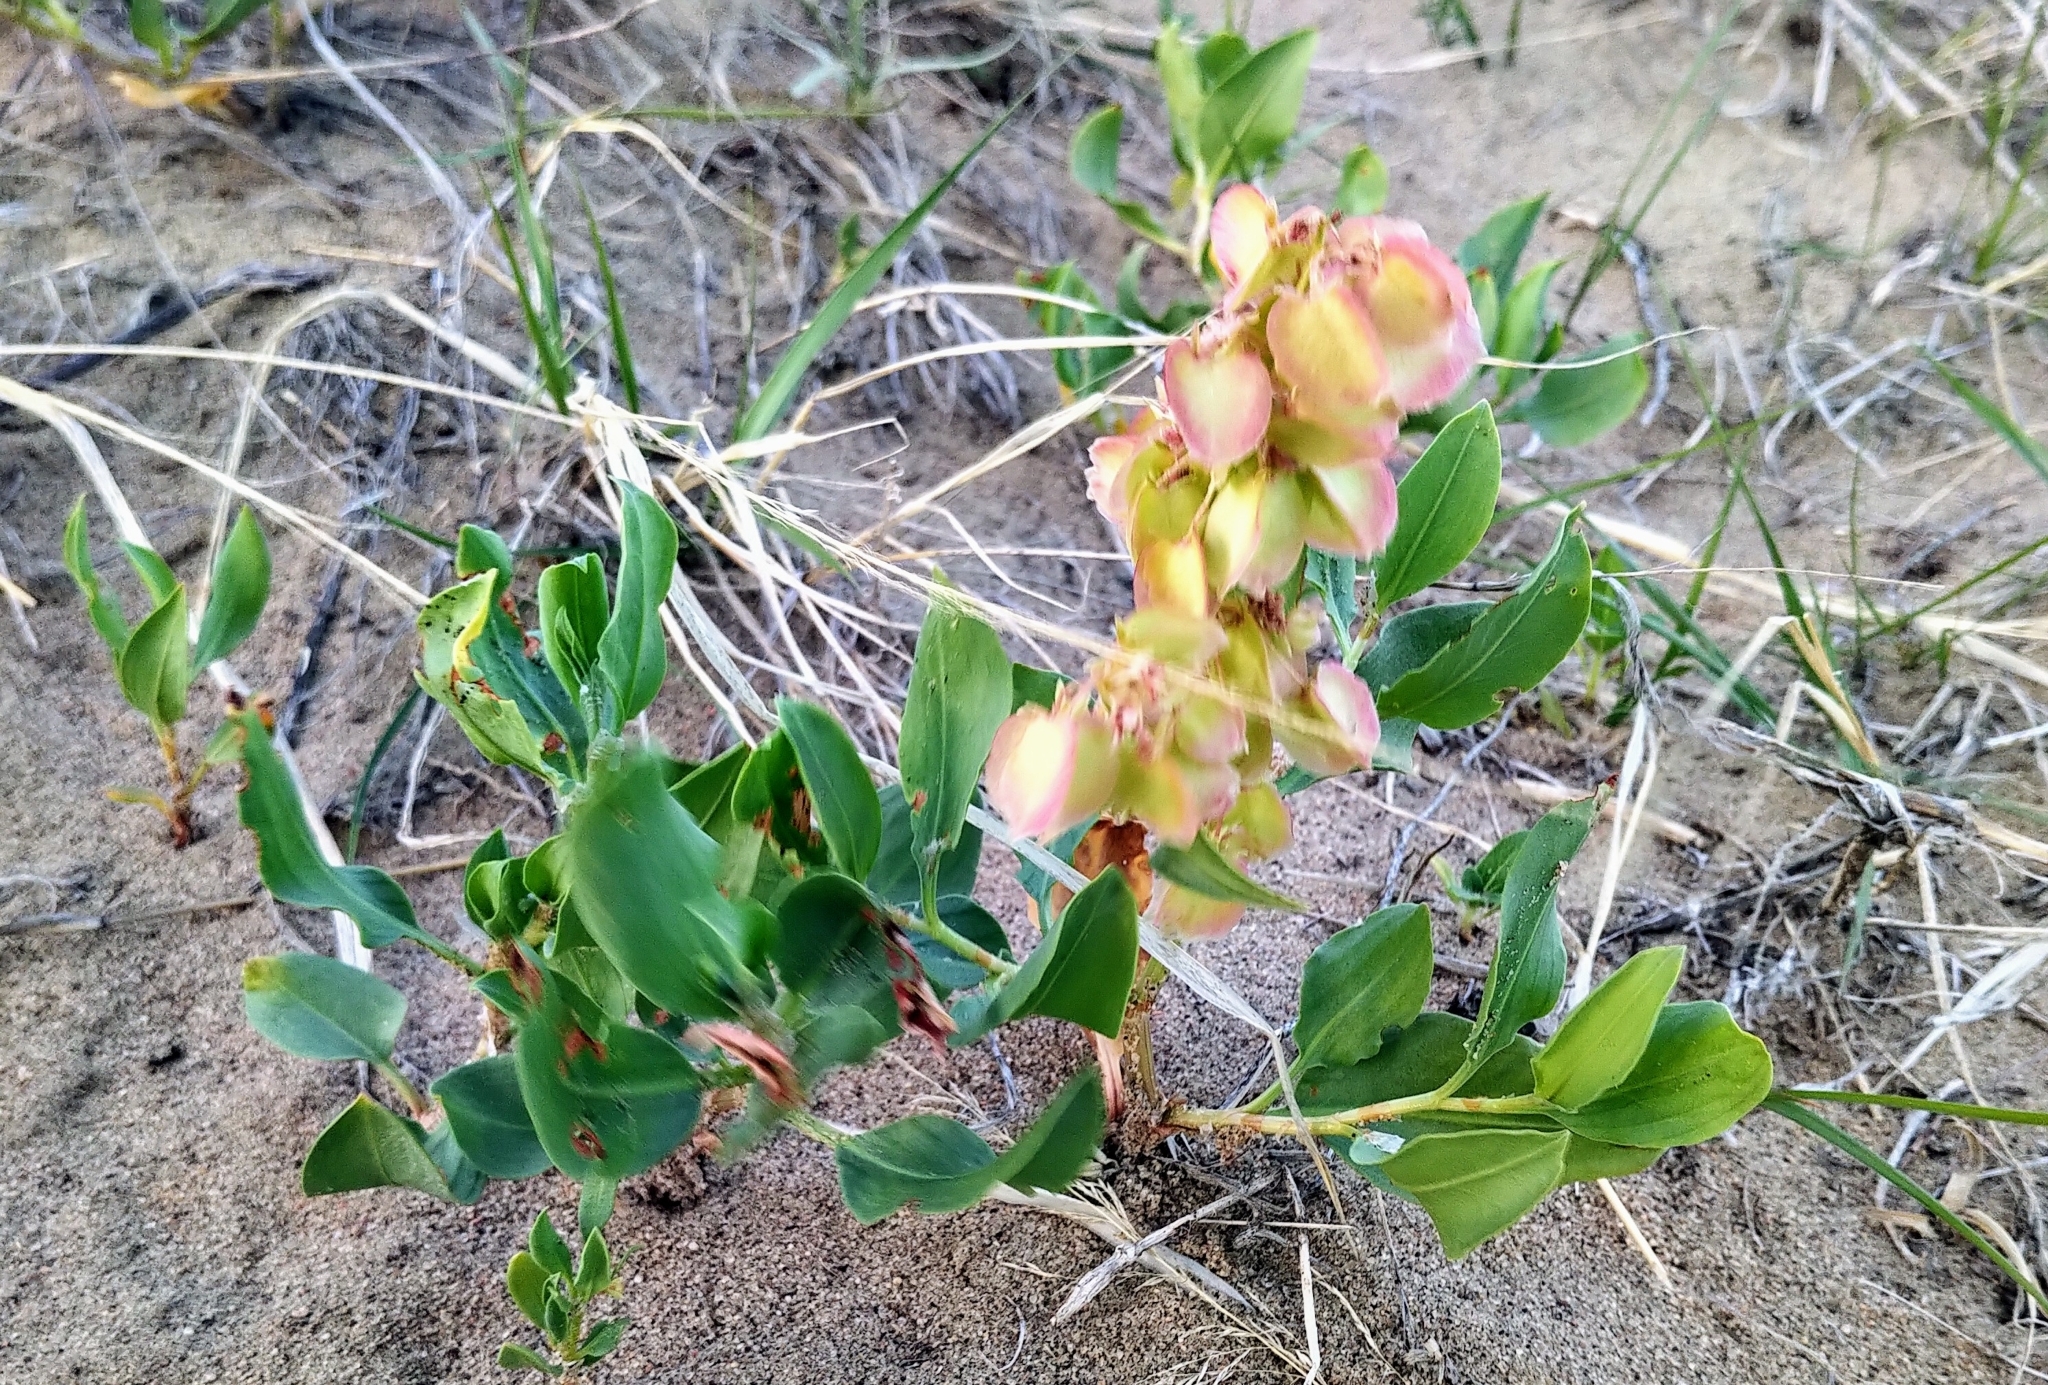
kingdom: Plantae
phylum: Tracheophyta
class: Magnoliopsida
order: Caryophyllales
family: Polygonaceae
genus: Rumex
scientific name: Rumex venosus
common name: Winged dock
